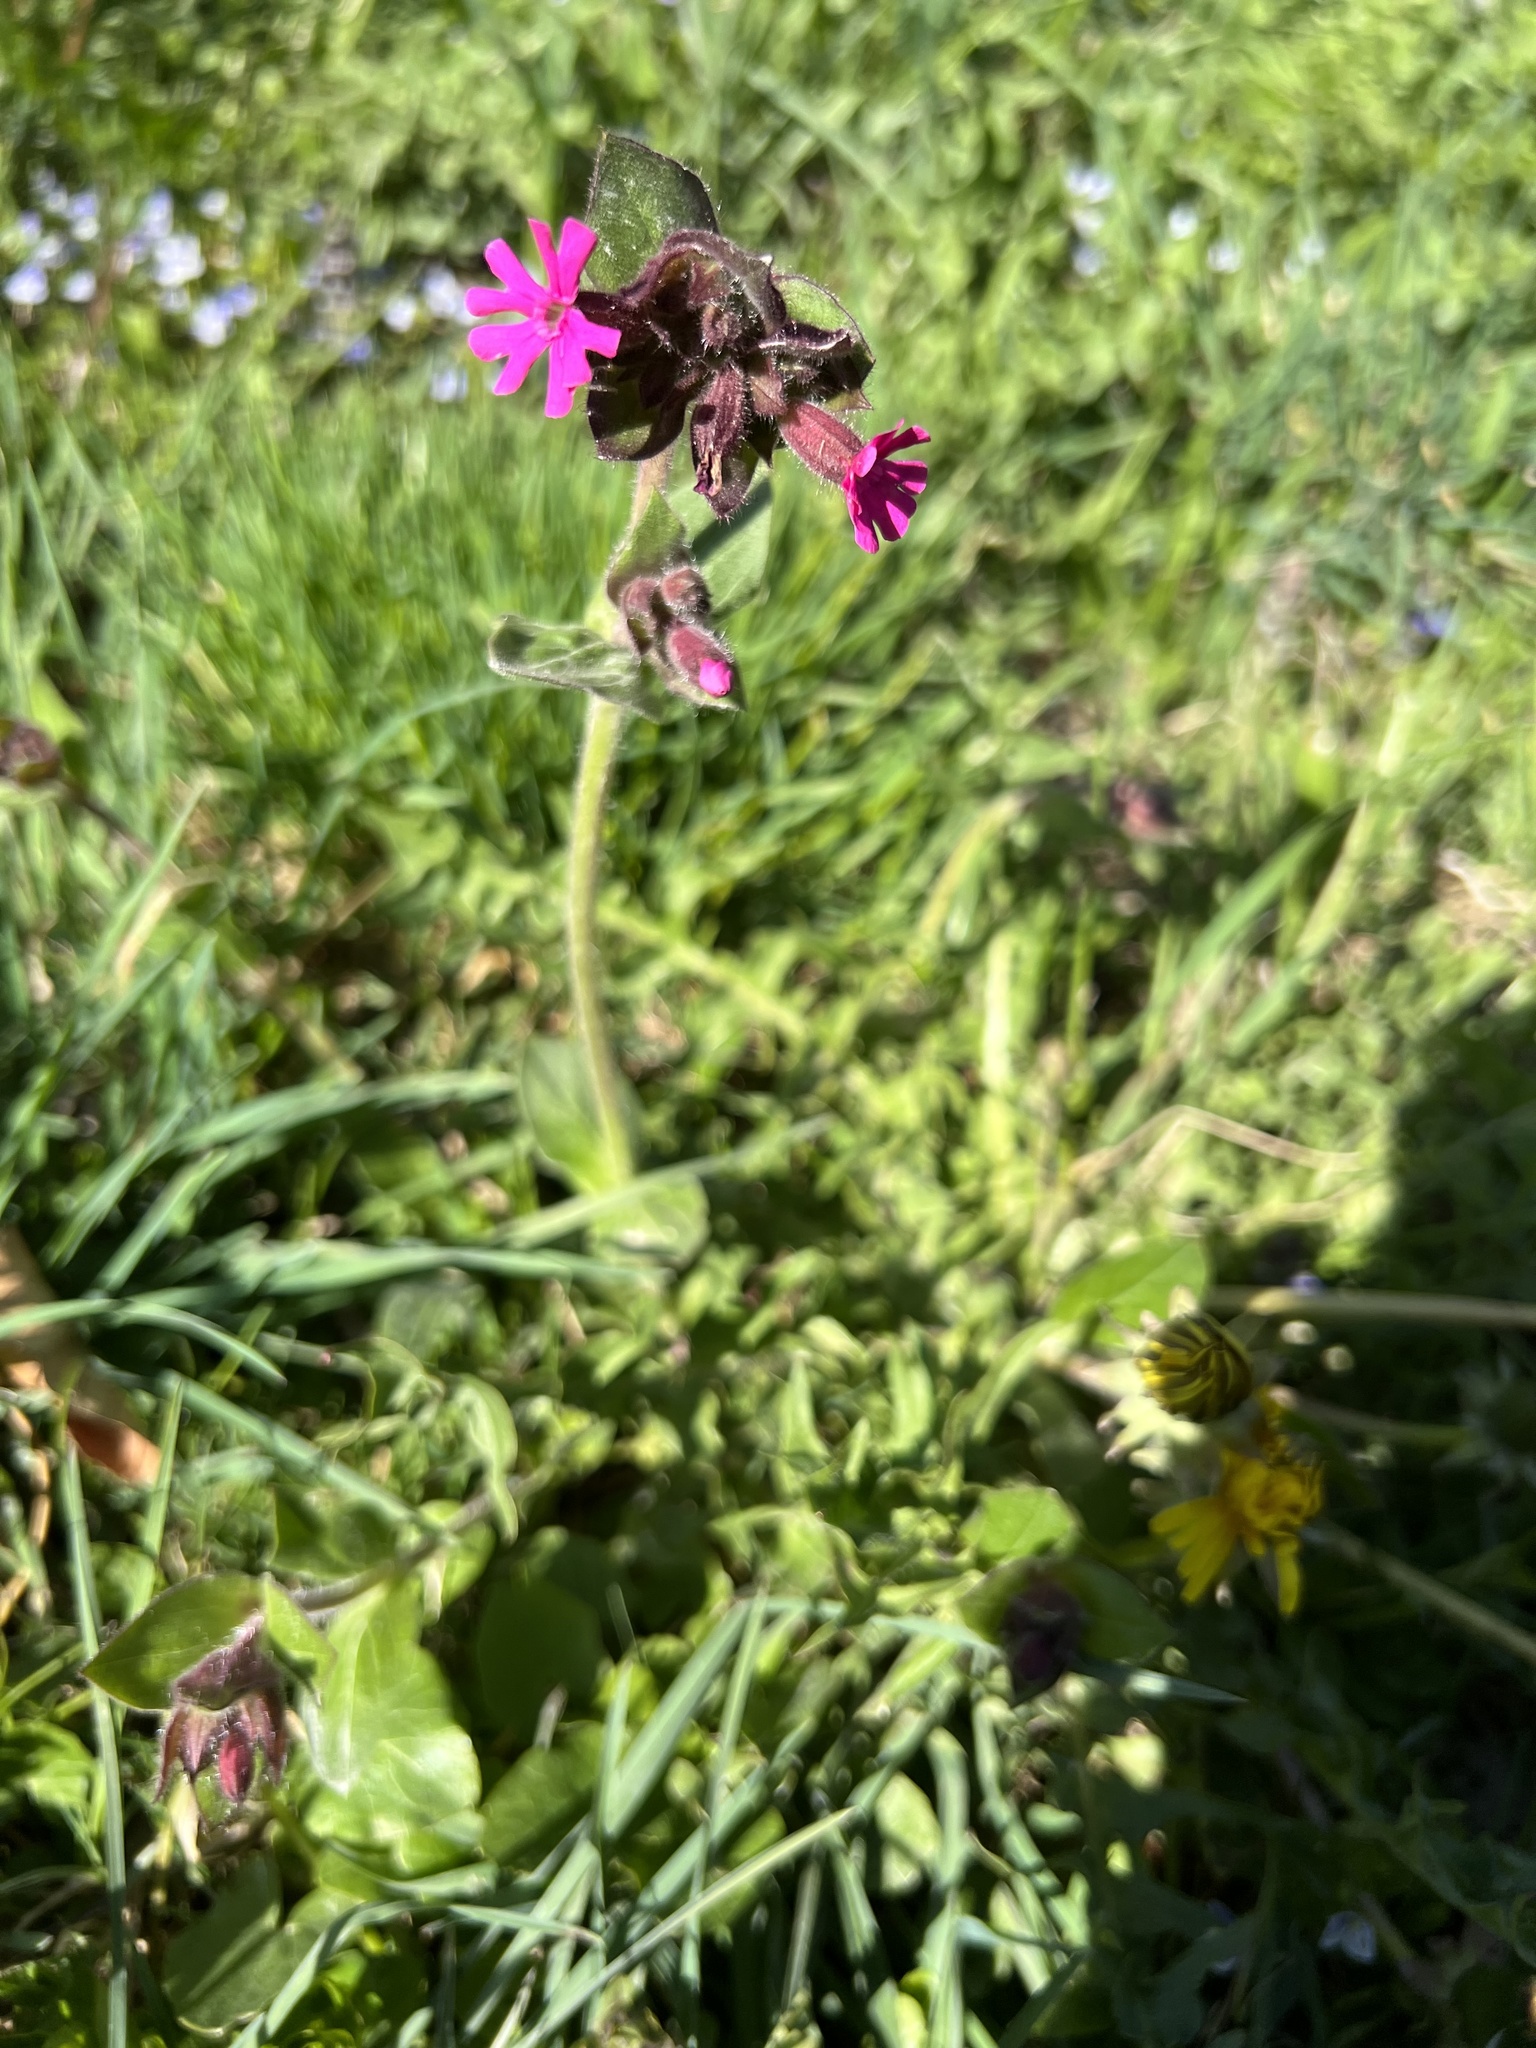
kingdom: Plantae
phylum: Tracheophyta
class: Magnoliopsida
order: Caryophyllales
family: Caryophyllaceae
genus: Silene
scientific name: Silene dioica
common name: Red campion
